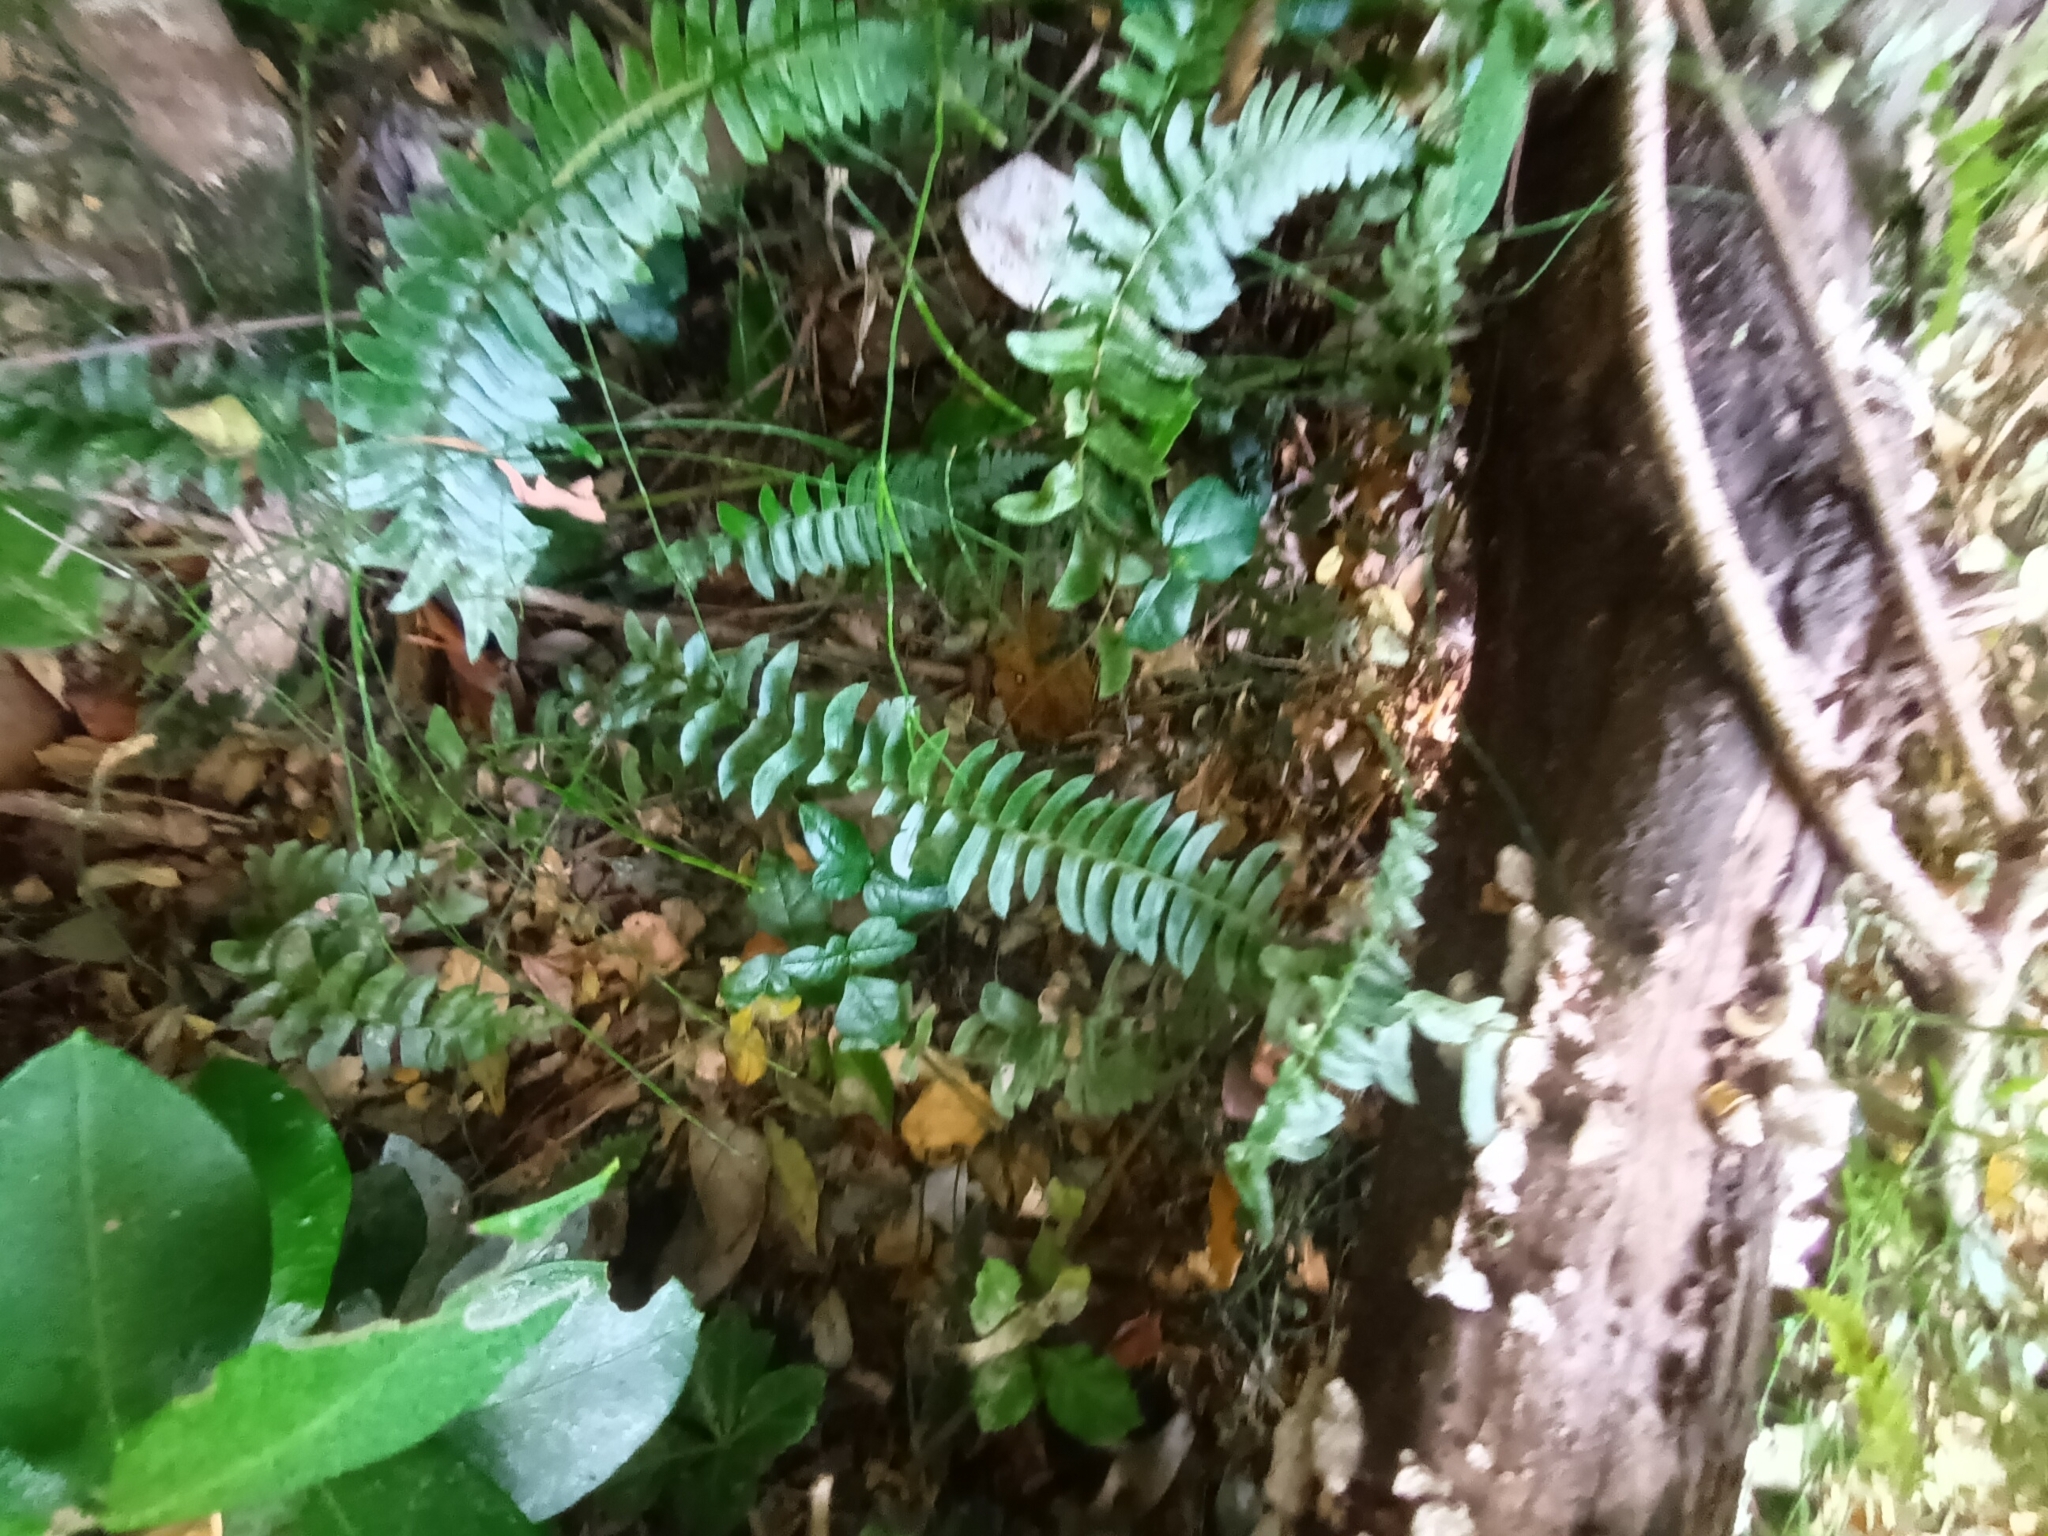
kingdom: Plantae
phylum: Tracheophyta
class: Polypodiopsida
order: Polypodiales
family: Blechnaceae
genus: Blechnum
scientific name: Blechnum hastatum
